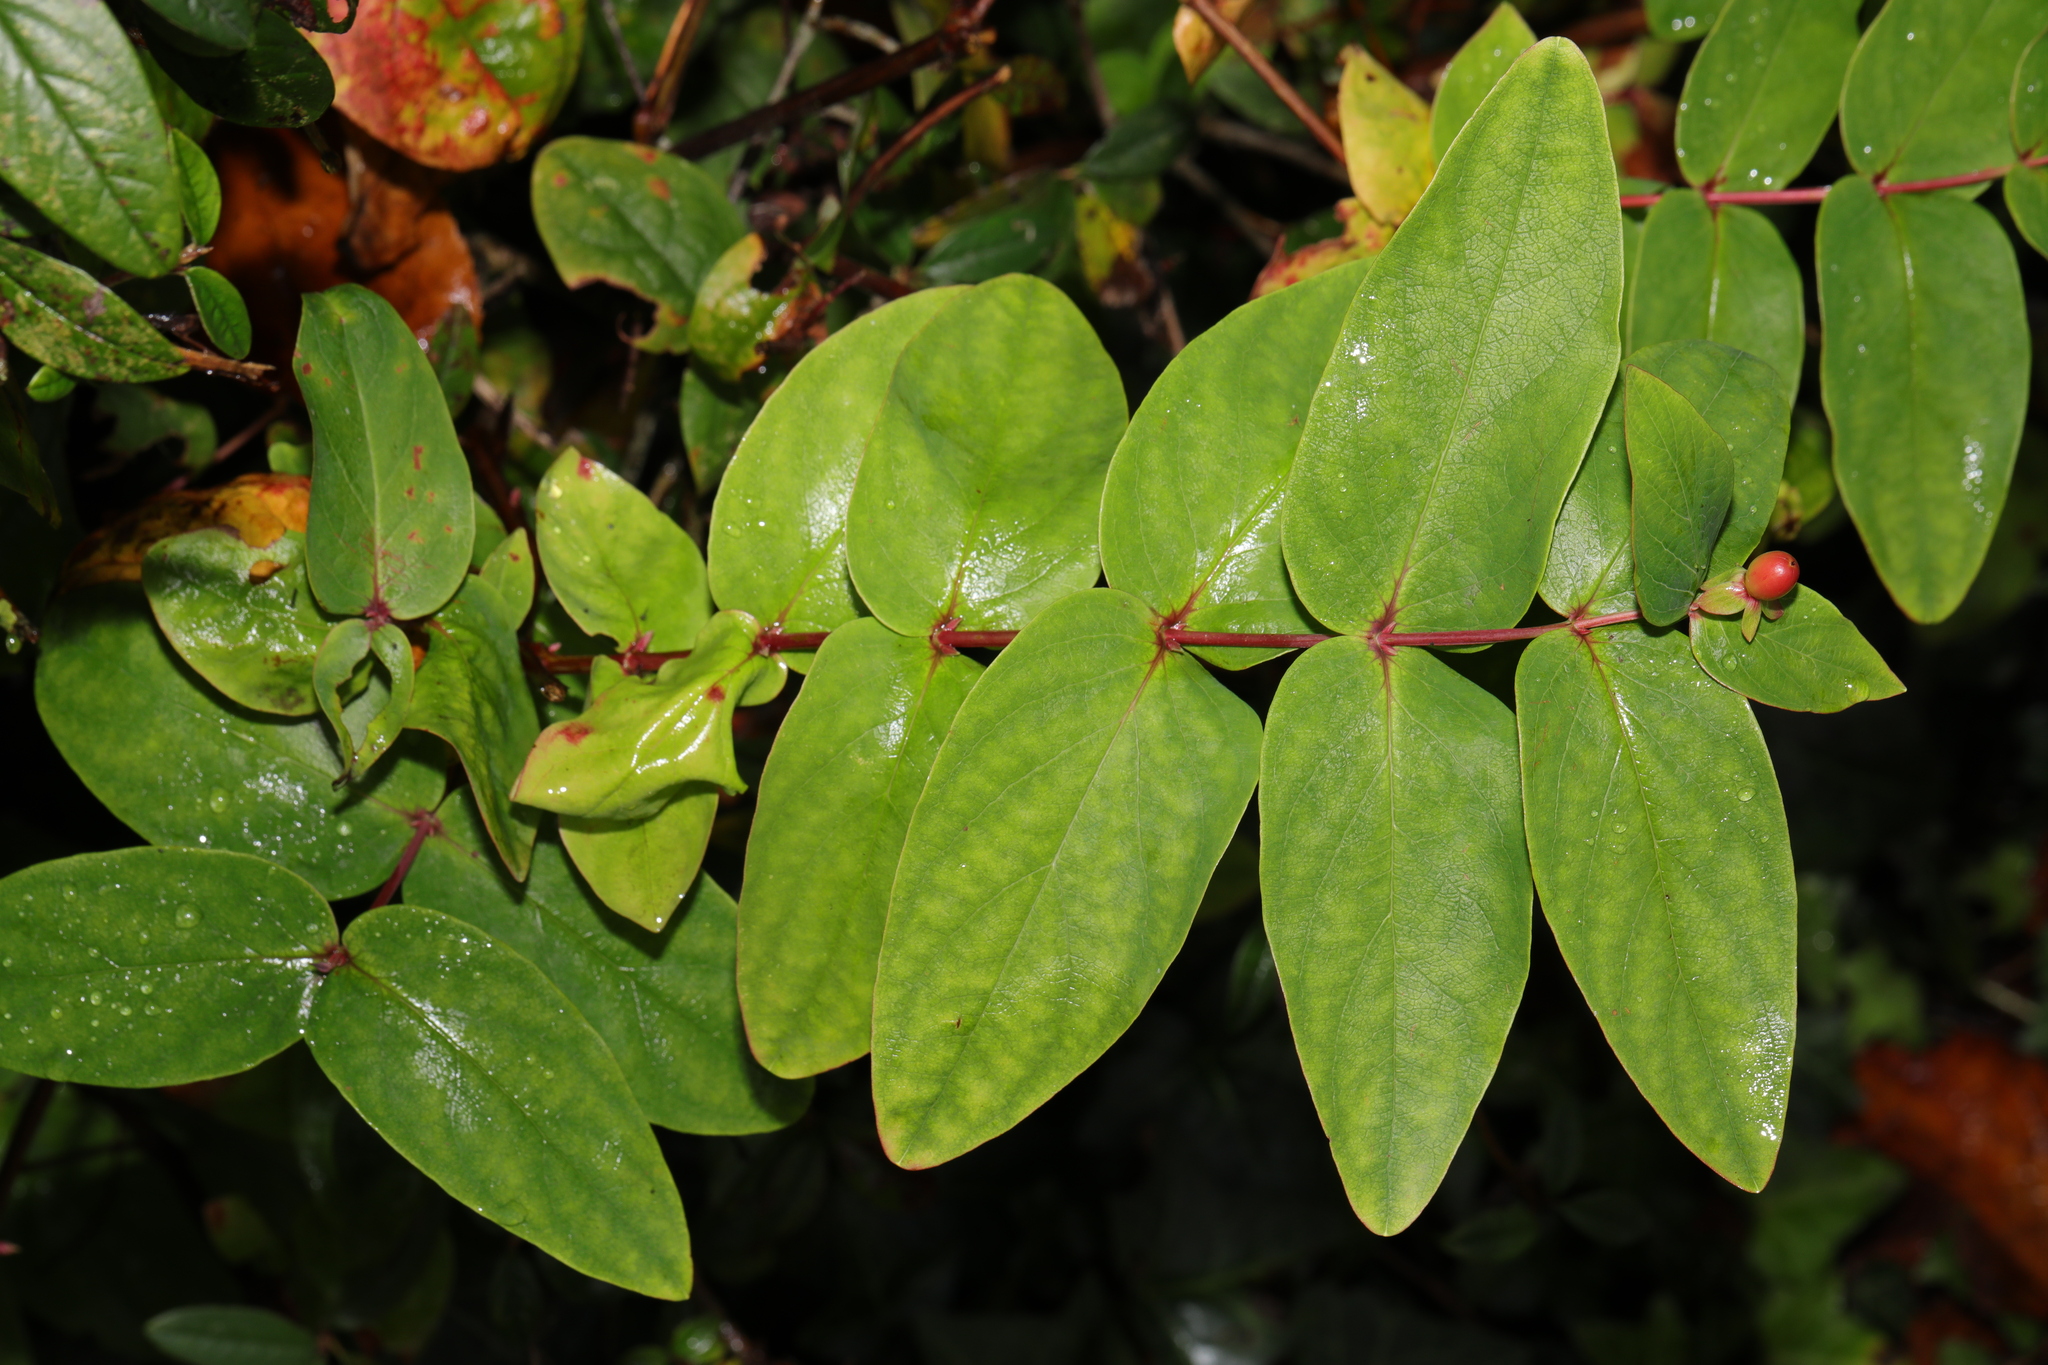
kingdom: Plantae
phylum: Tracheophyta
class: Magnoliopsida
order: Malpighiales
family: Hypericaceae
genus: Hypericum
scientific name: Hypericum androsaemum
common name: Sweet-amber
